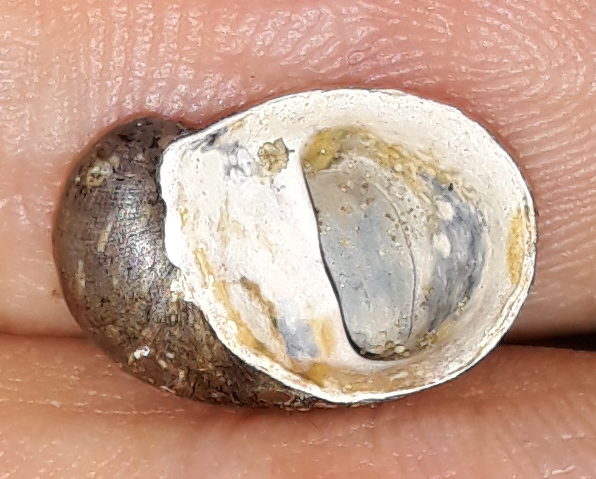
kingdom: Animalia
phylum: Mollusca
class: Gastropoda
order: Cycloneritida
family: Neritidae
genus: Theodoxus
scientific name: Theodoxus fluviatilis
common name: River nerite
